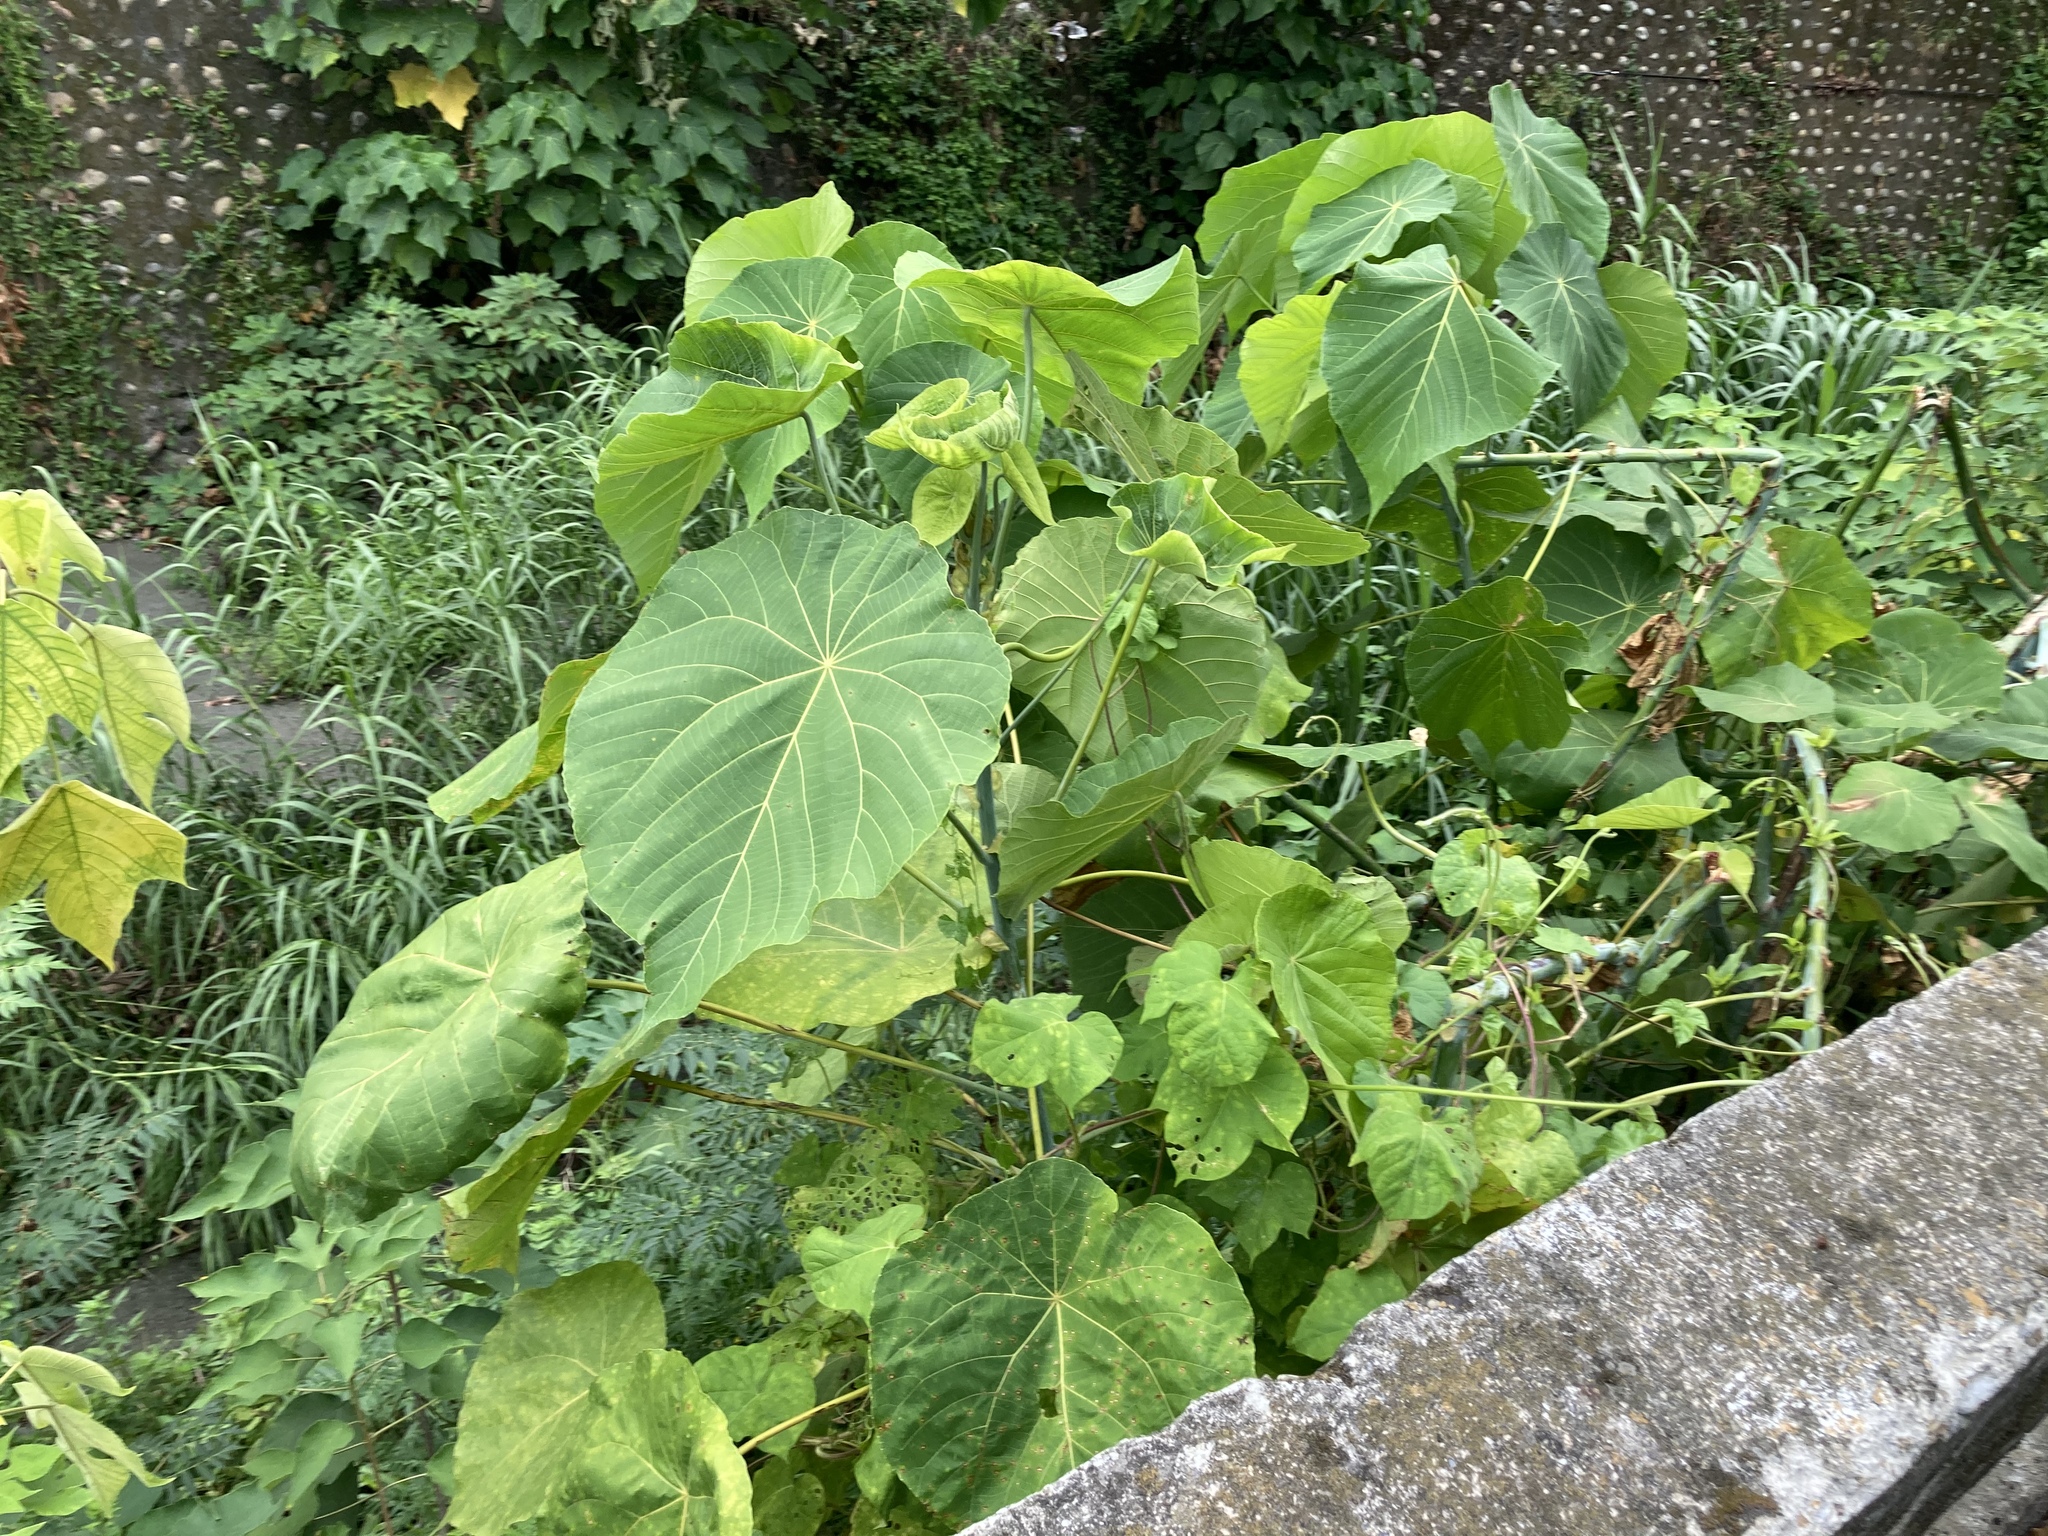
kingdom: Plantae
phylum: Tracheophyta
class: Magnoliopsida
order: Malpighiales
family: Euphorbiaceae
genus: Macaranga
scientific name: Macaranga tanarius
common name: Parasol leaf tree
